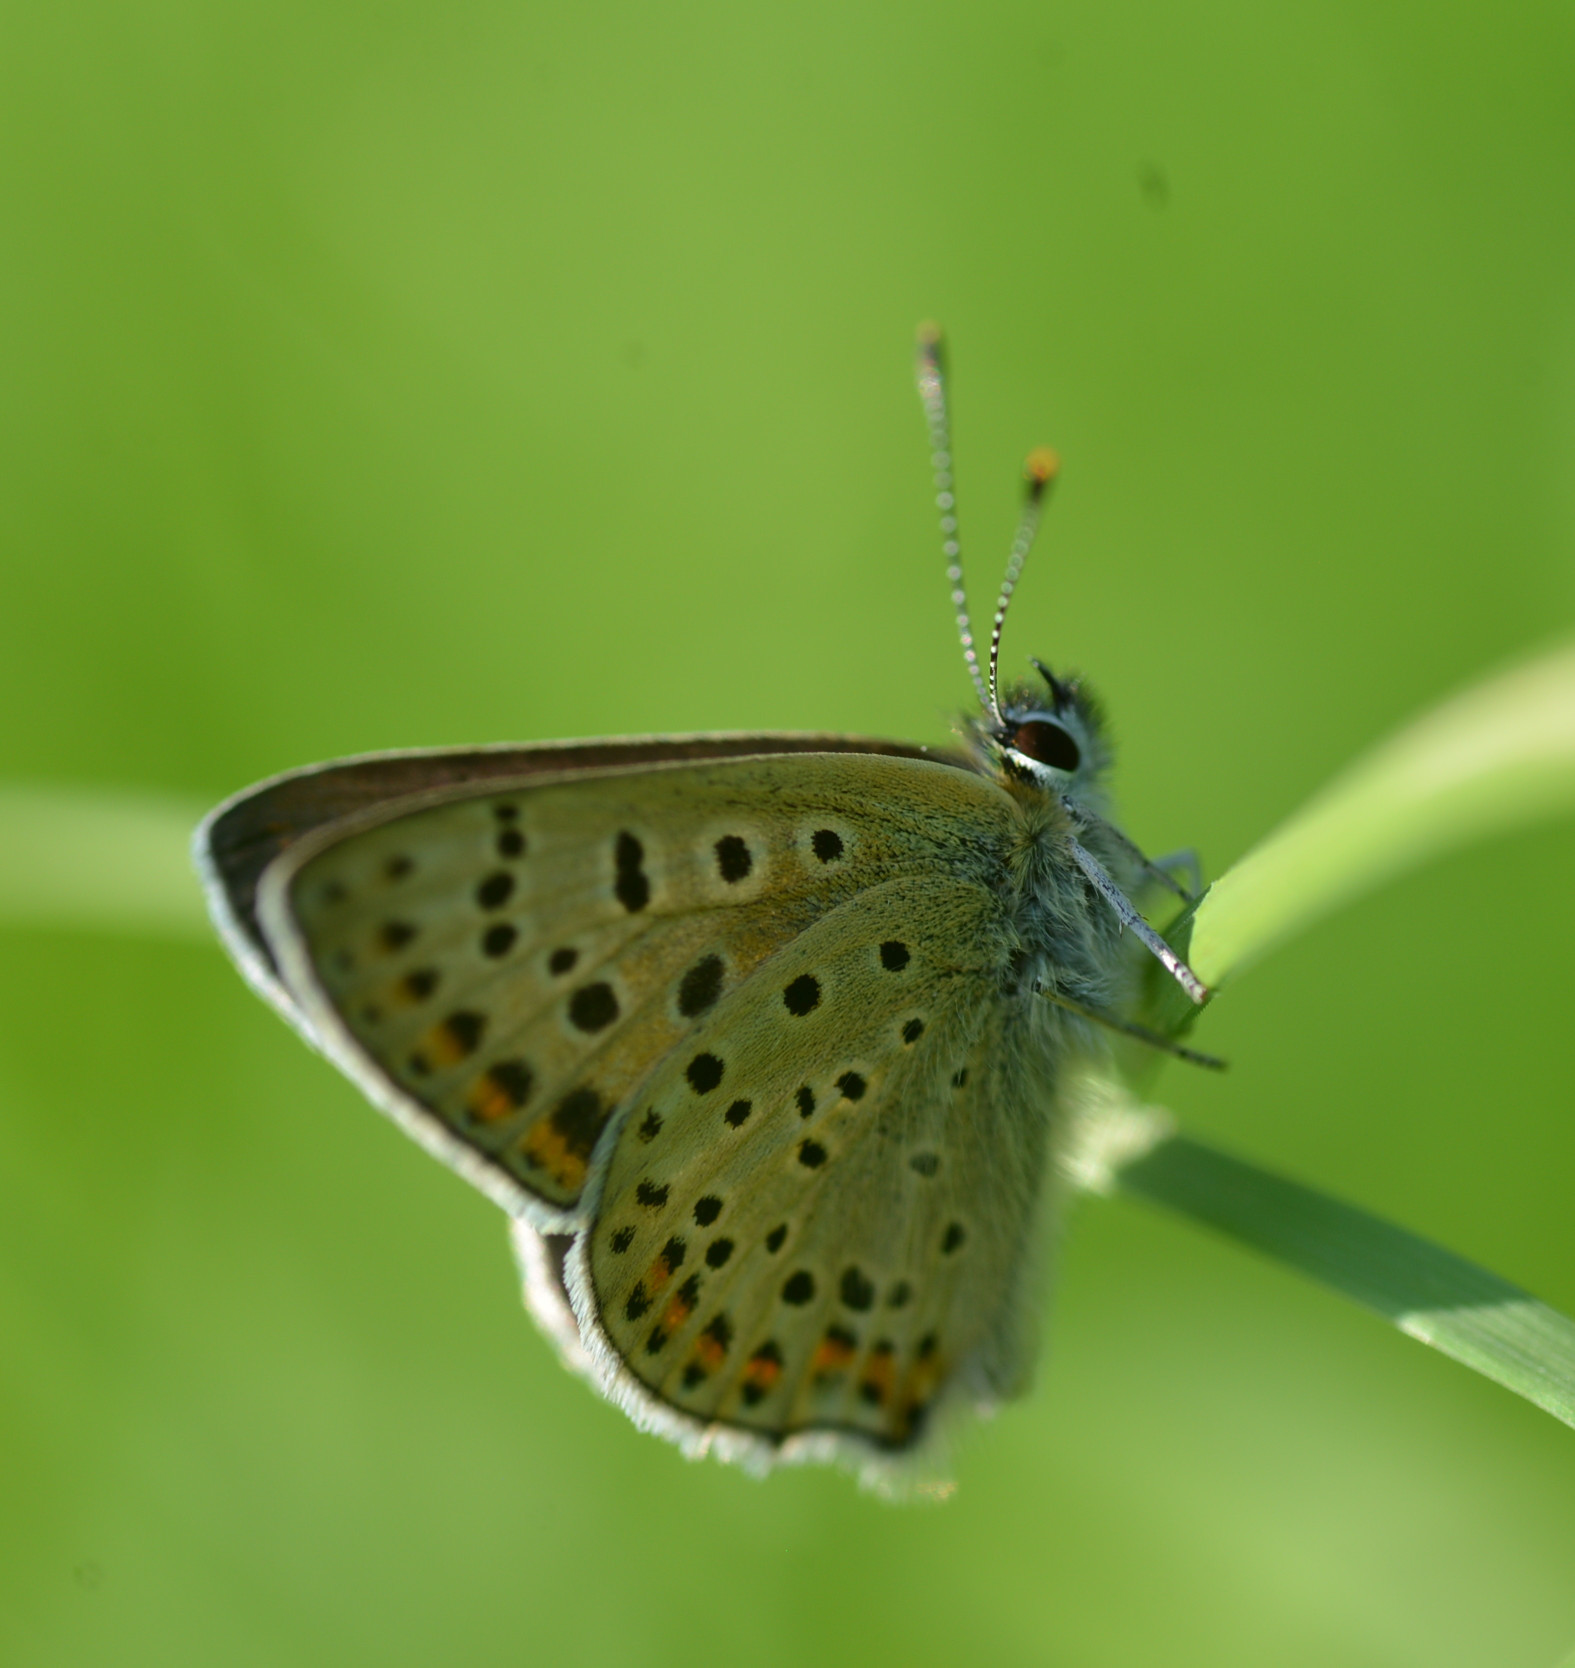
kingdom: Animalia
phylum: Arthropoda
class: Insecta
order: Lepidoptera
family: Lycaenidae
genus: Loweia
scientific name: Loweia tityrus
